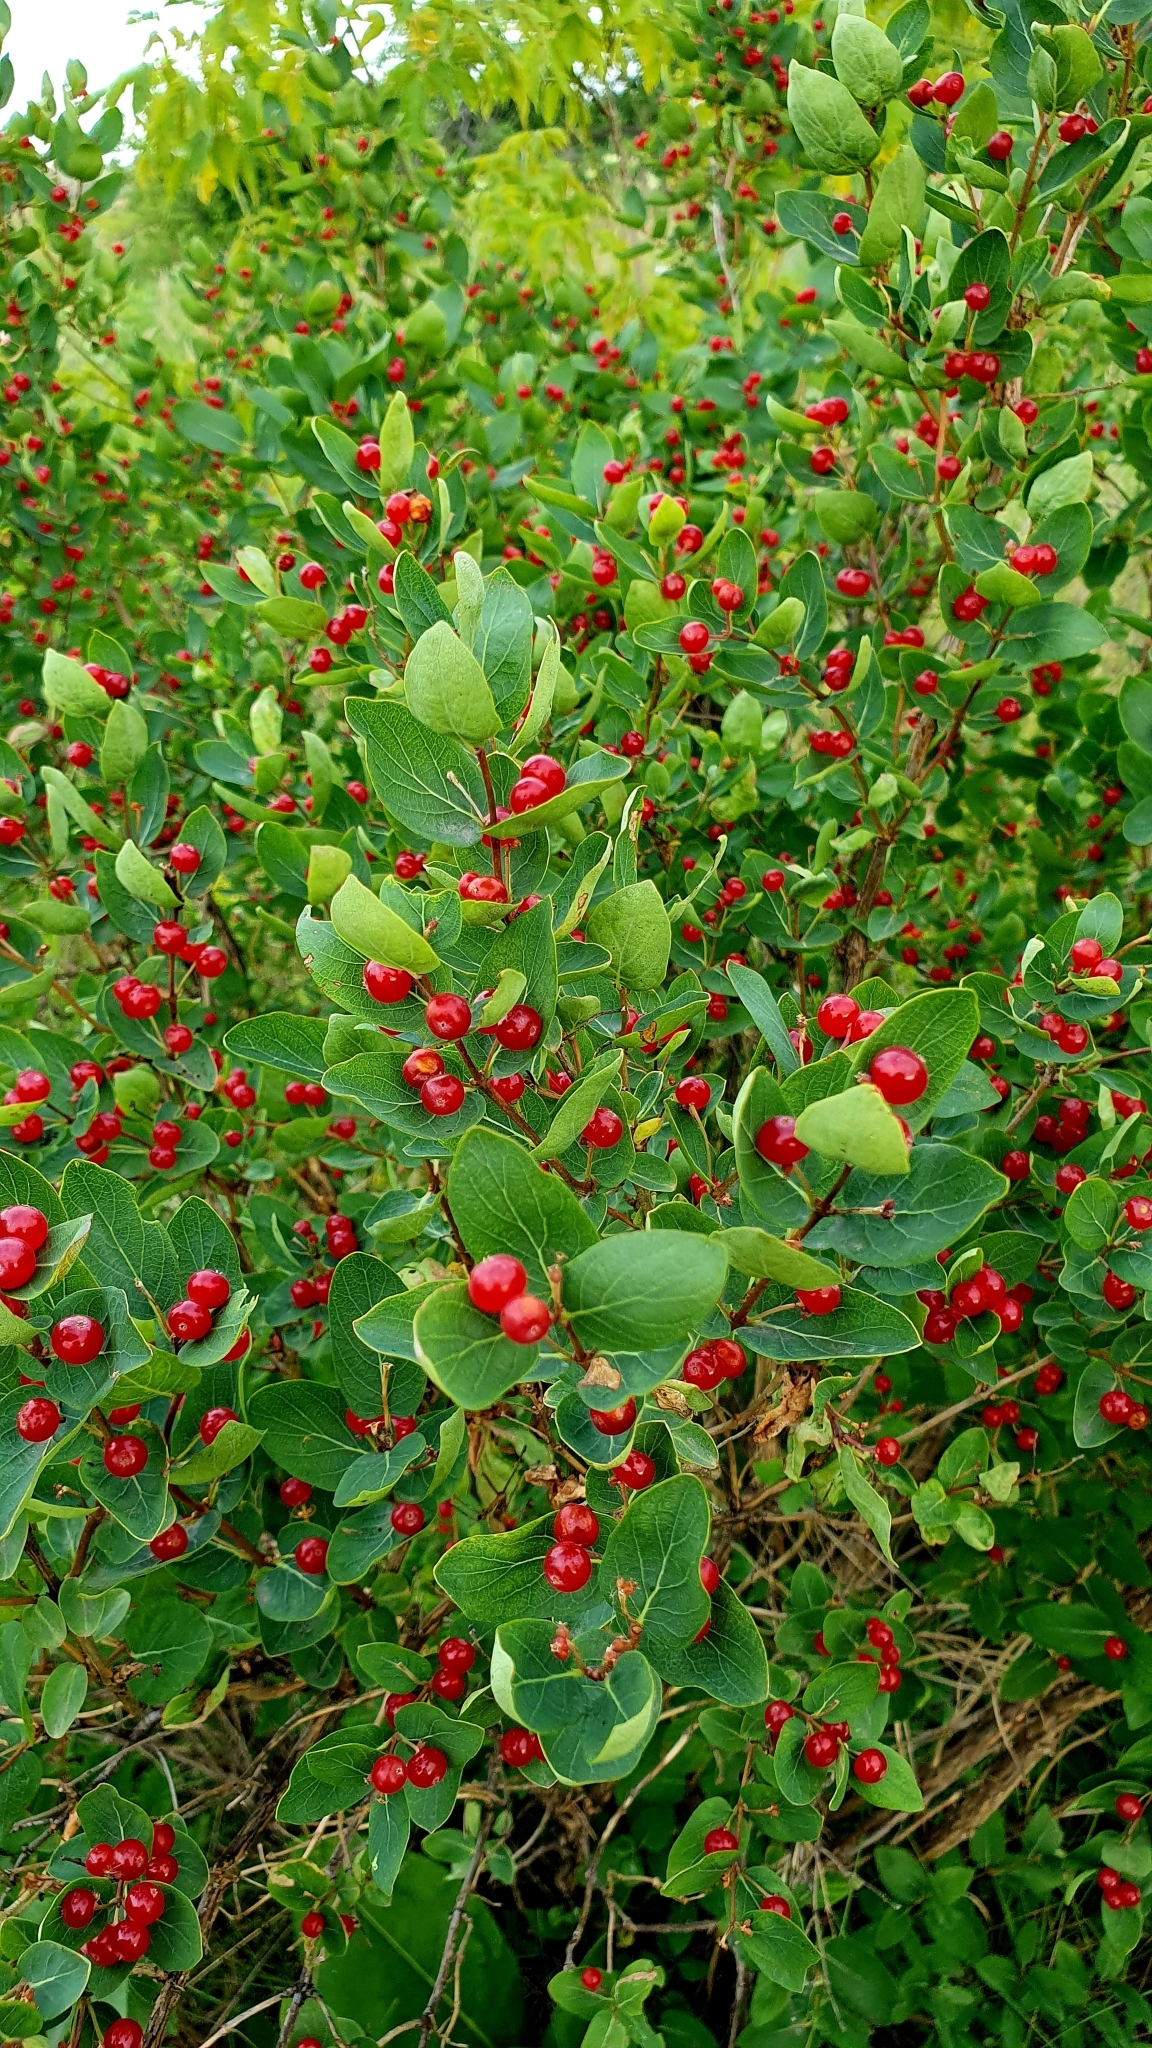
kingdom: Plantae
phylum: Tracheophyta
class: Magnoliopsida
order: Dipsacales
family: Caprifoliaceae
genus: Lonicera
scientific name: Lonicera tatarica
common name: Tatarian honeysuckle
